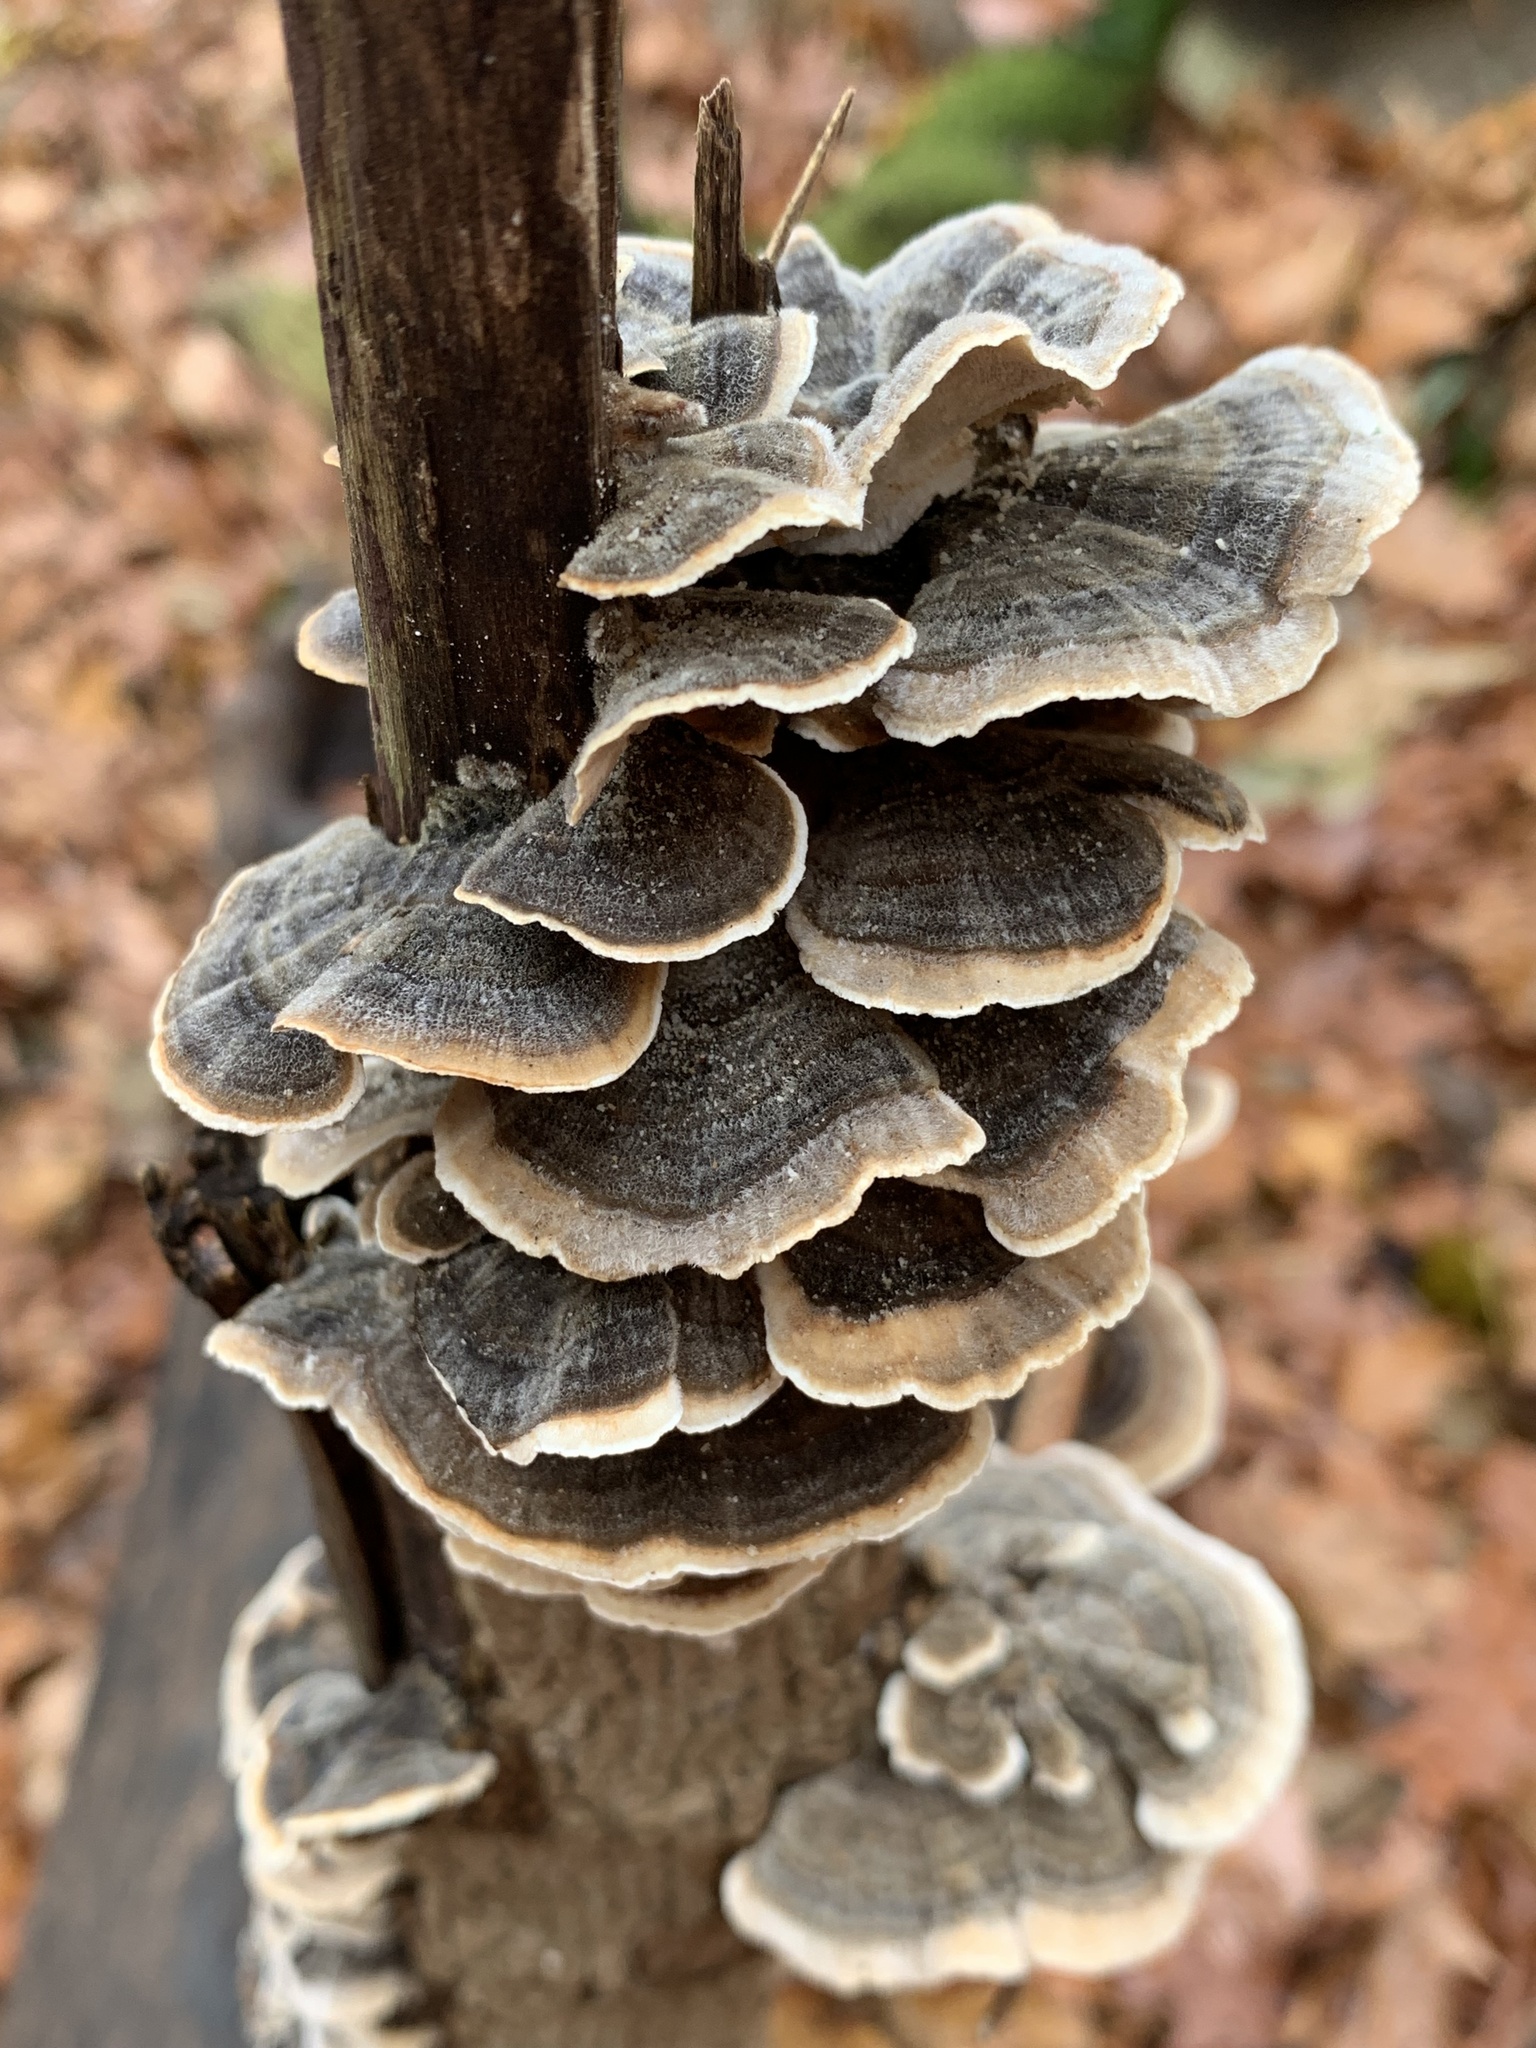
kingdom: Fungi
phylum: Basidiomycota
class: Agaricomycetes
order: Polyporales
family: Polyporaceae
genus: Trametes
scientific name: Trametes versicolor
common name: Turkeytail
